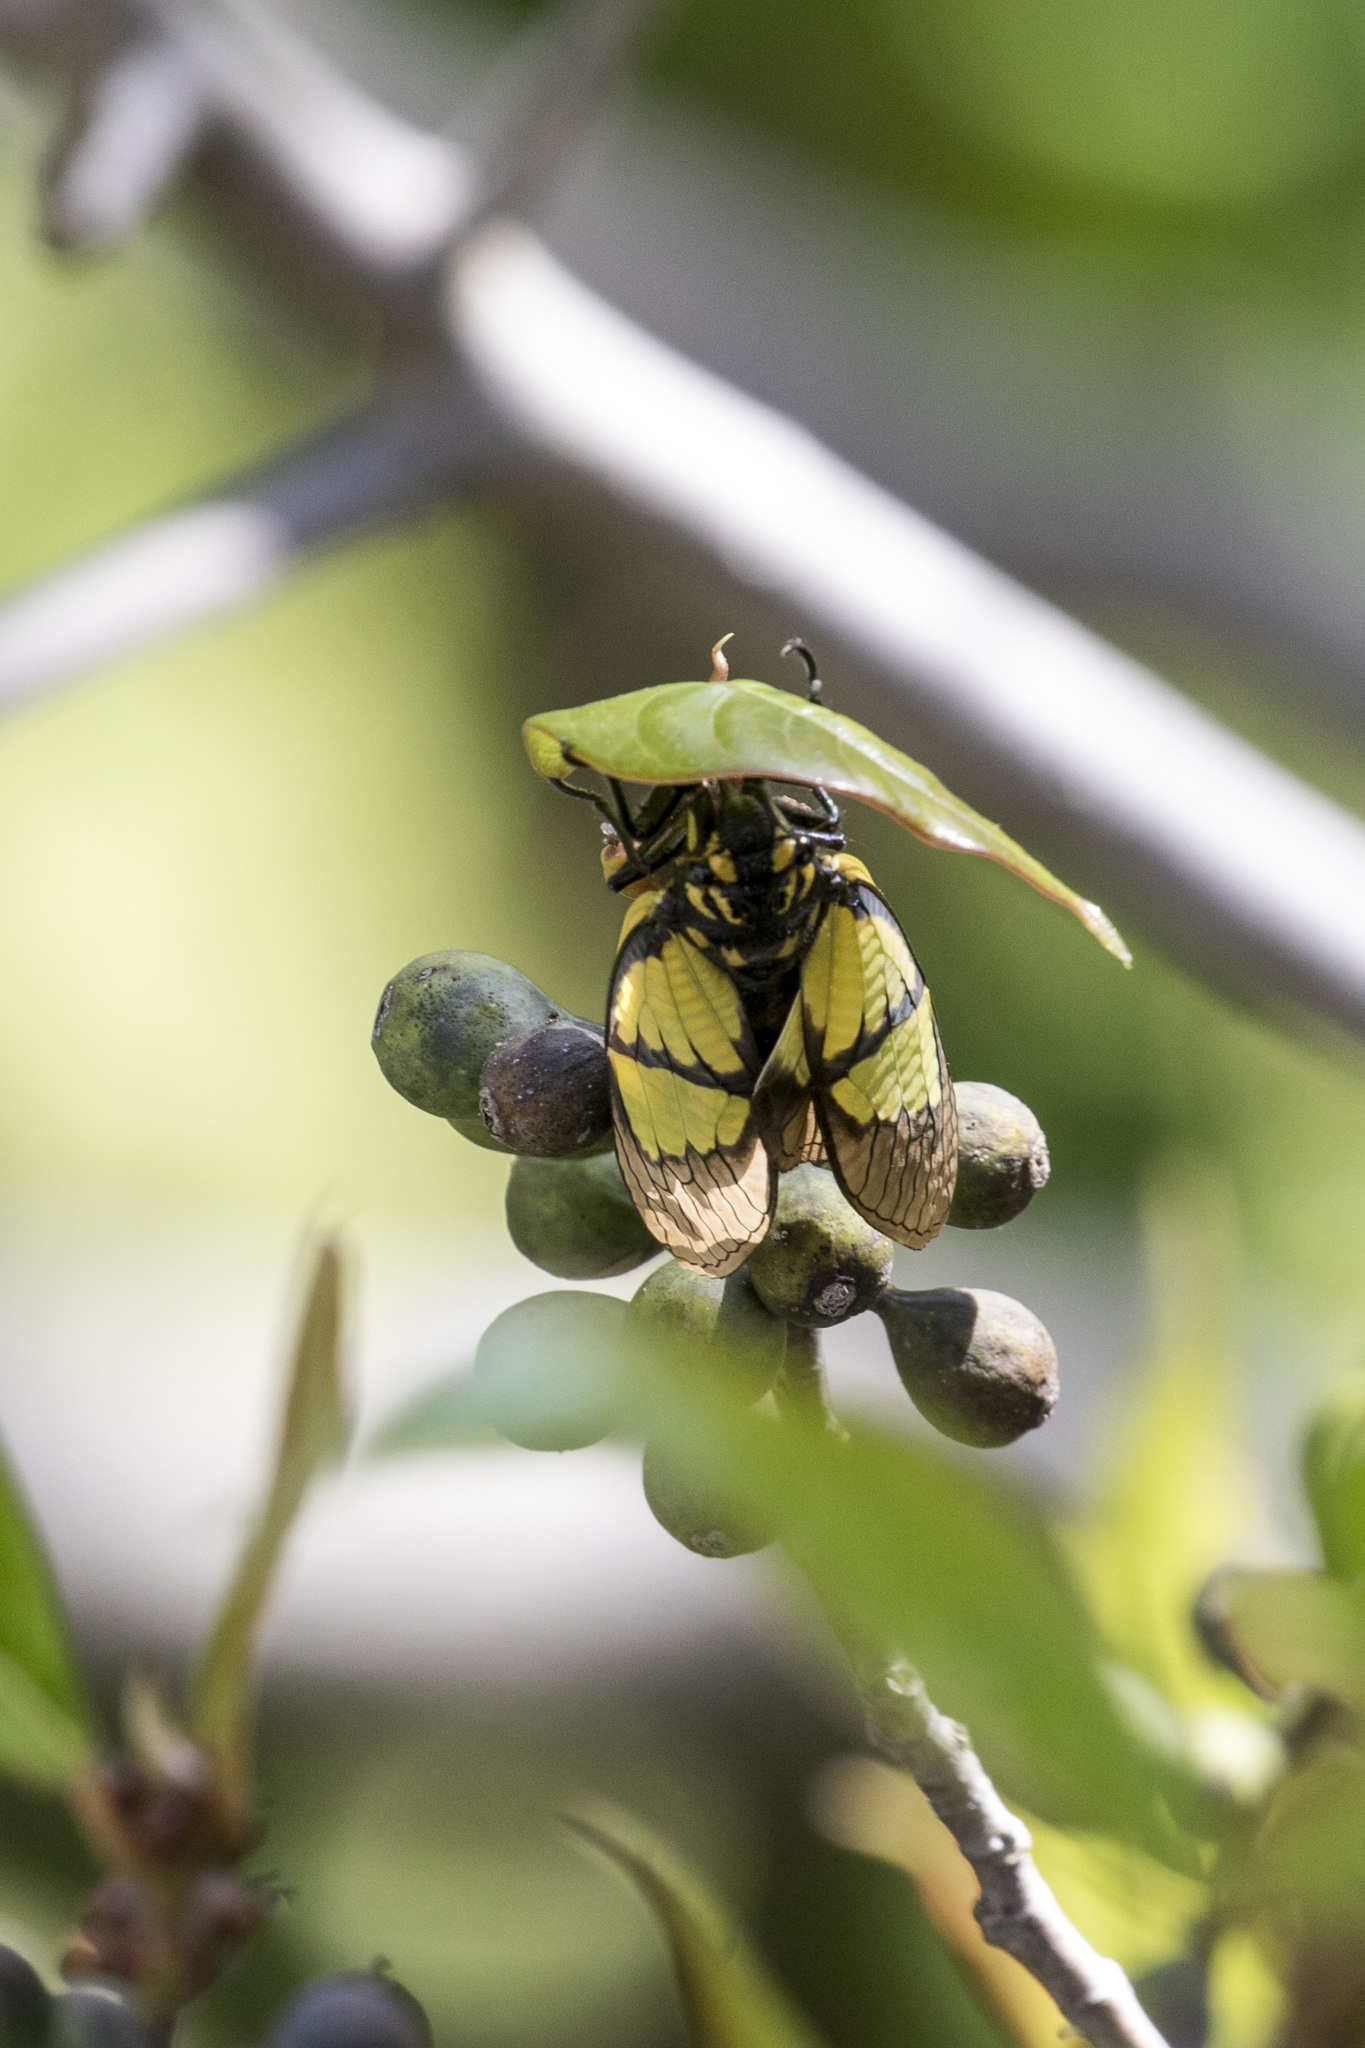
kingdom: Animalia
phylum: Arthropoda
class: Insecta
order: Hemiptera
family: Cicadidae
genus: Sulphogaeana
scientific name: Sulphogaeana sulphurea
